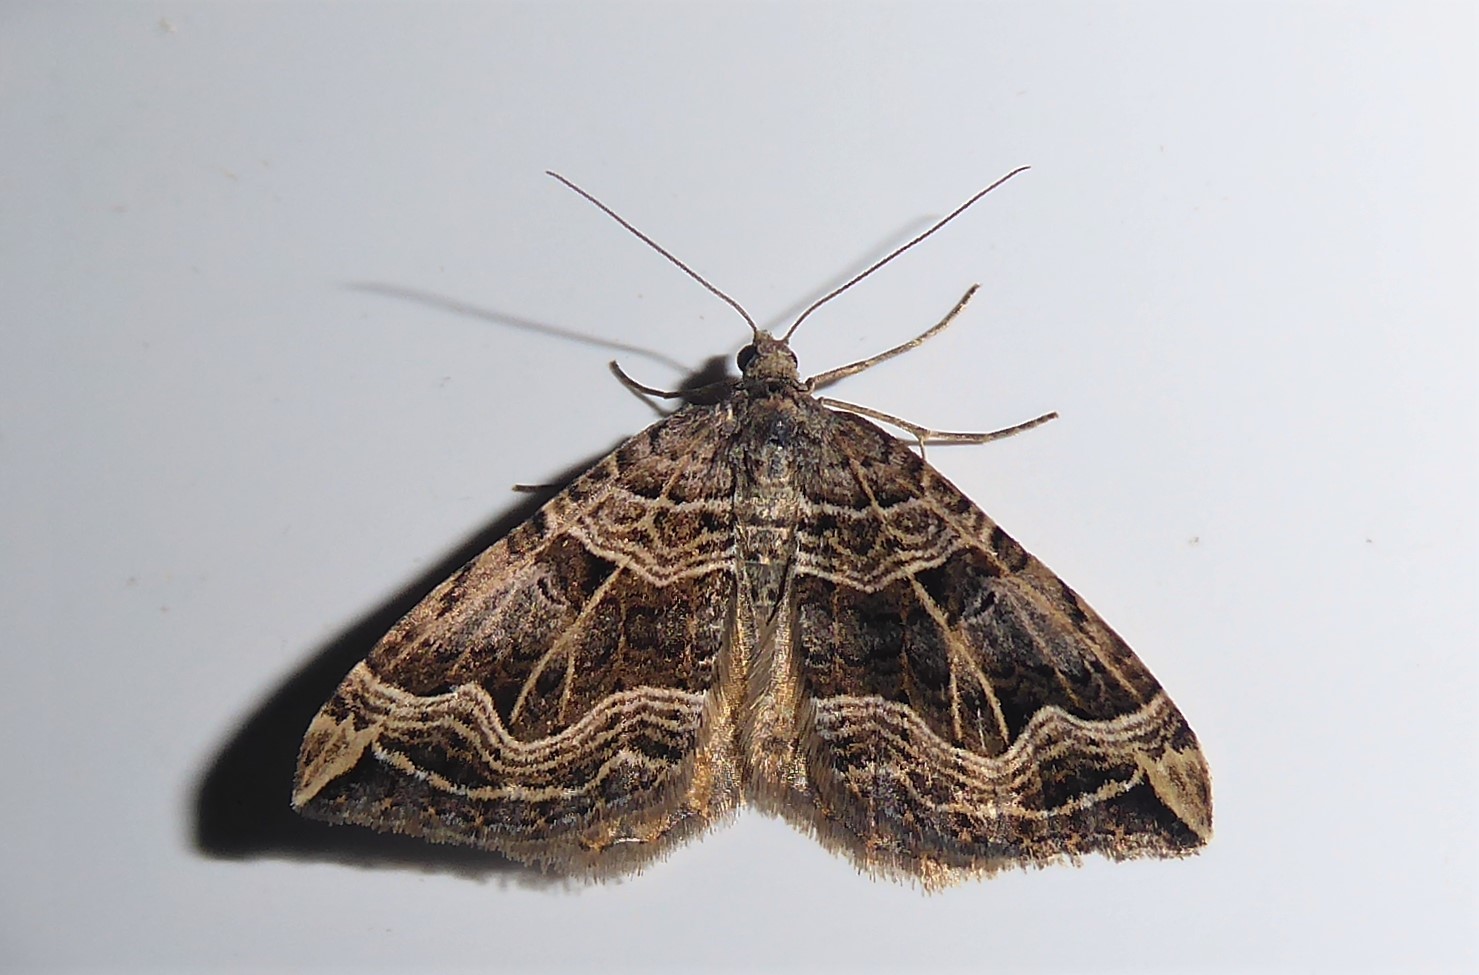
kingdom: Animalia
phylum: Arthropoda
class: Insecta
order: Lepidoptera
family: Geometridae
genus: Xanthorhoe
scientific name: Xanthorhoe semifissata
